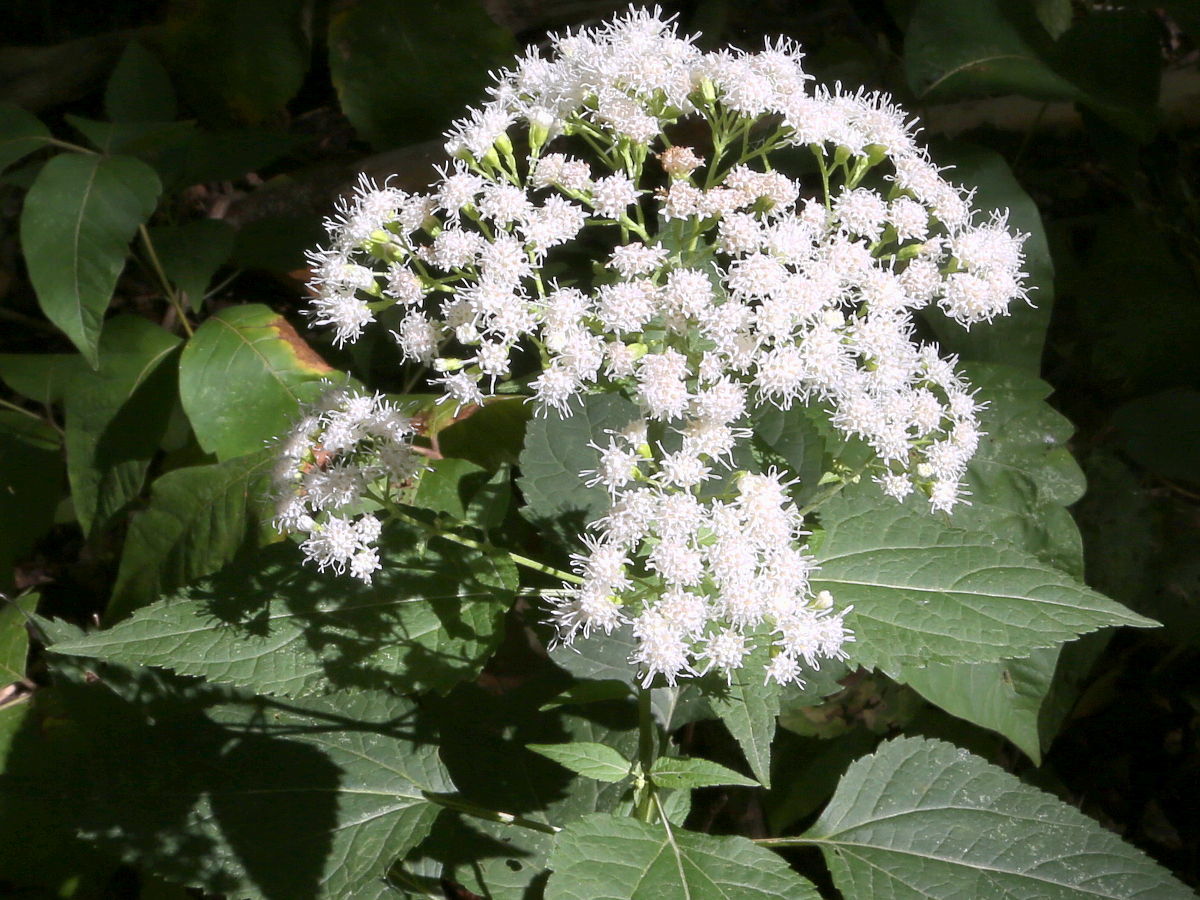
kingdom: Plantae
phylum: Tracheophyta
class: Magnoliopsida
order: Asterales
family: Asteraceae
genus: Ageratina
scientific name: Ageratina altissima
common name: White snakeroot
